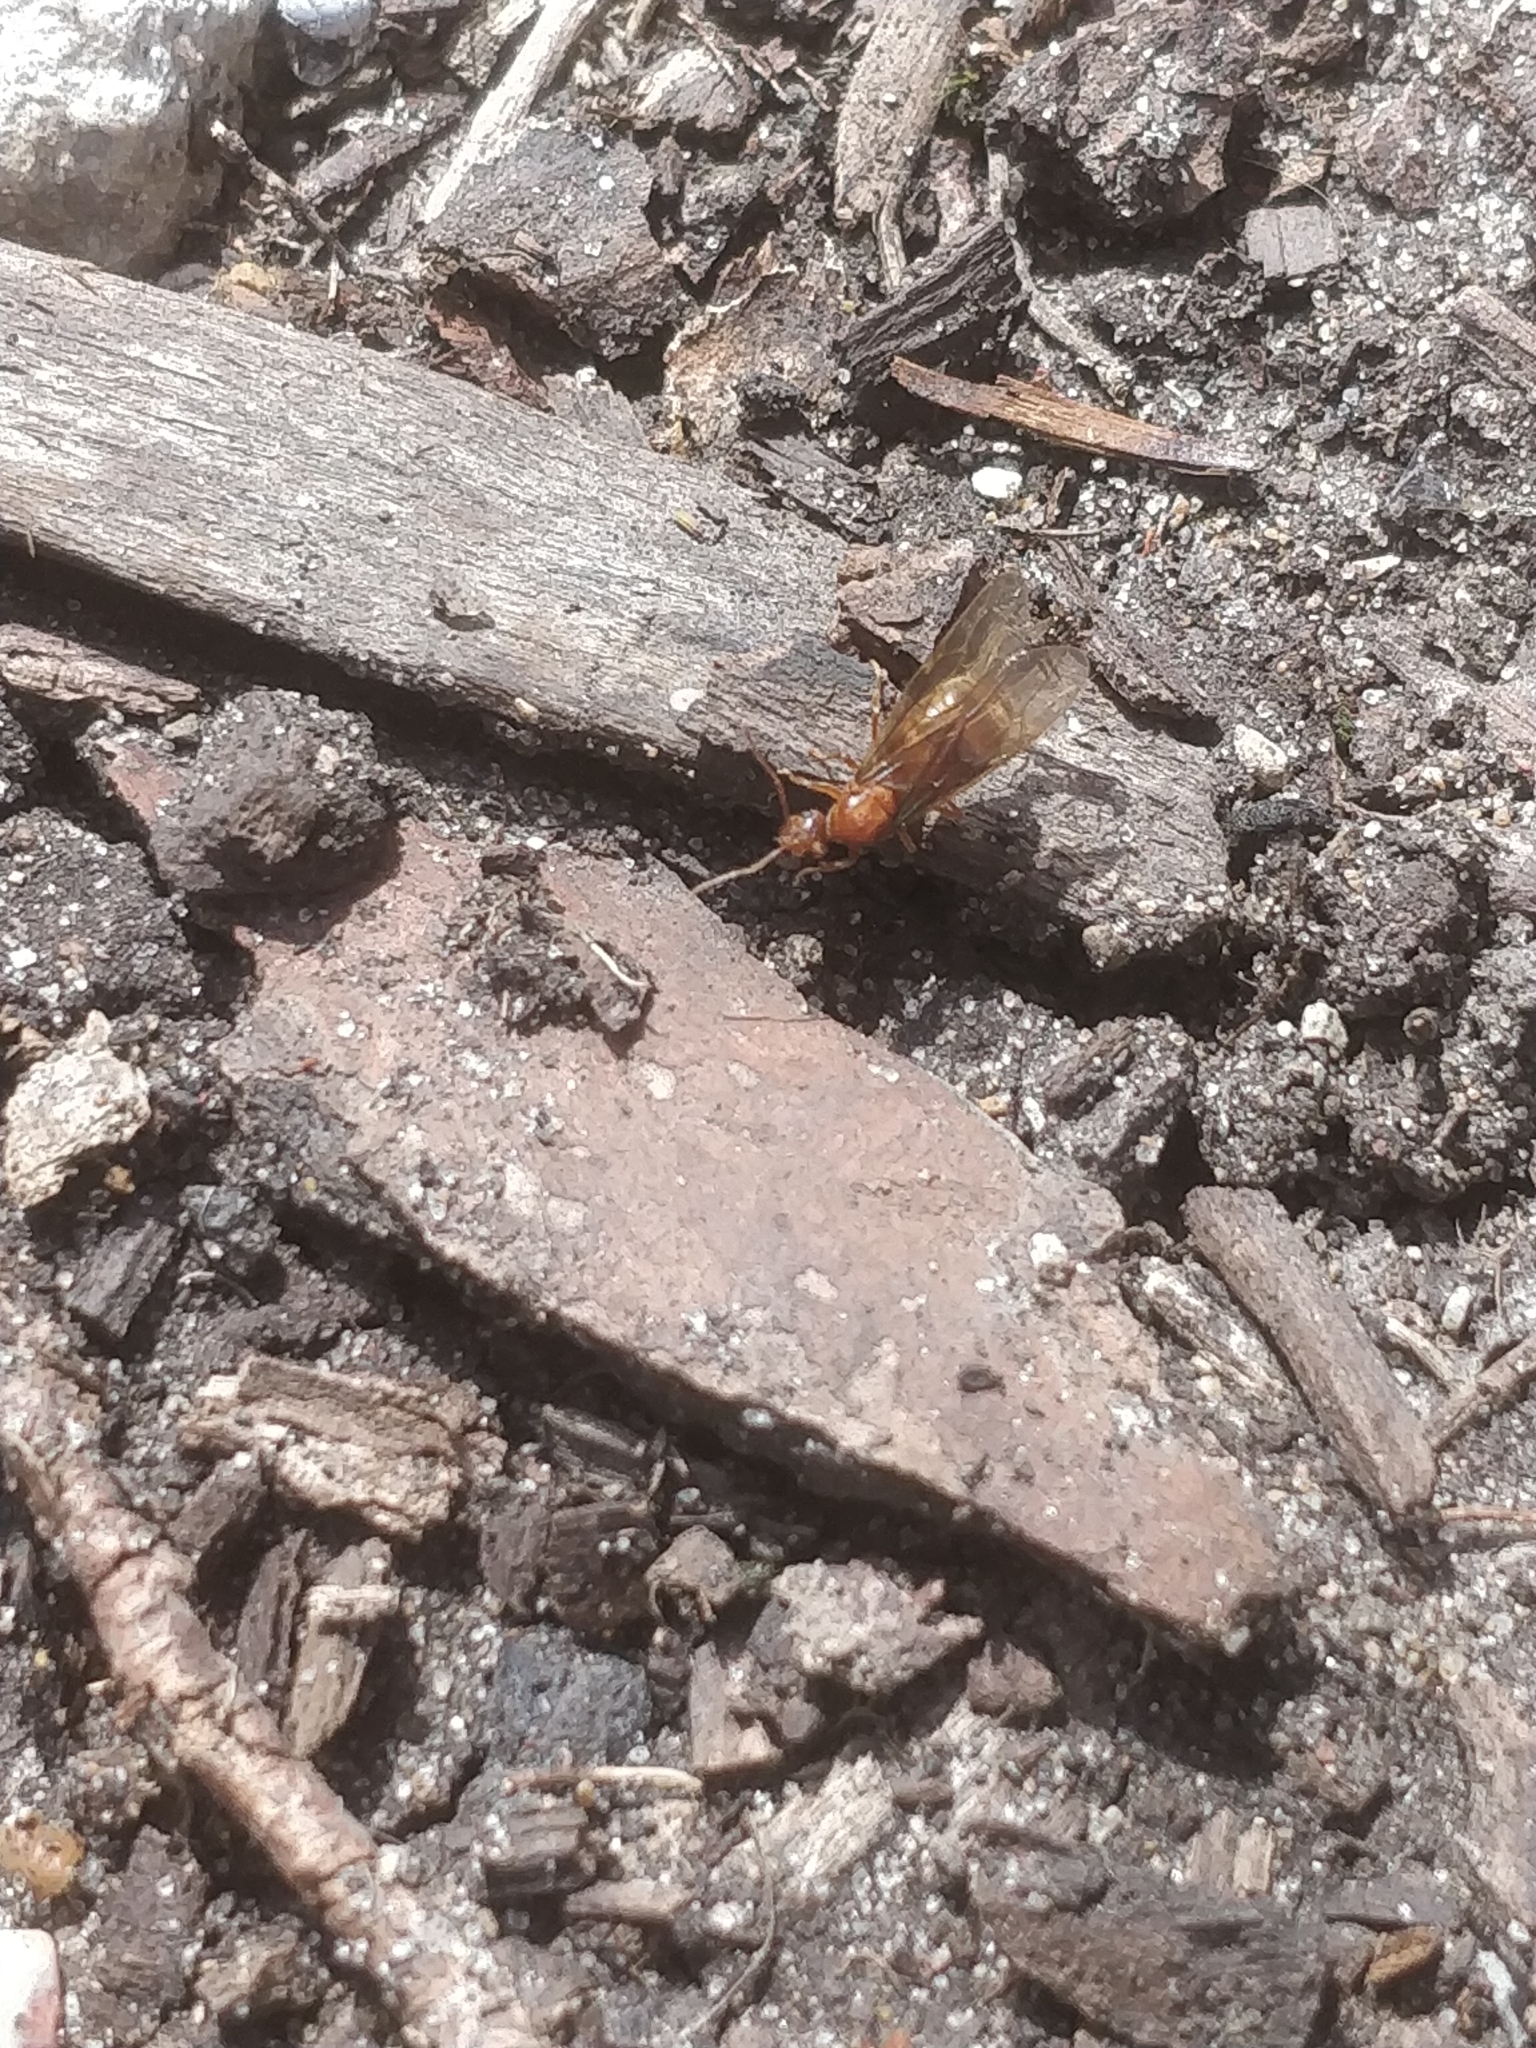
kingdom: Animalia
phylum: Arthropoda
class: Insecta
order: Hymenoptera
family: Formicidae
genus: Prenolepis
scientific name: Prenolepis imparis
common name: Small honey ant
